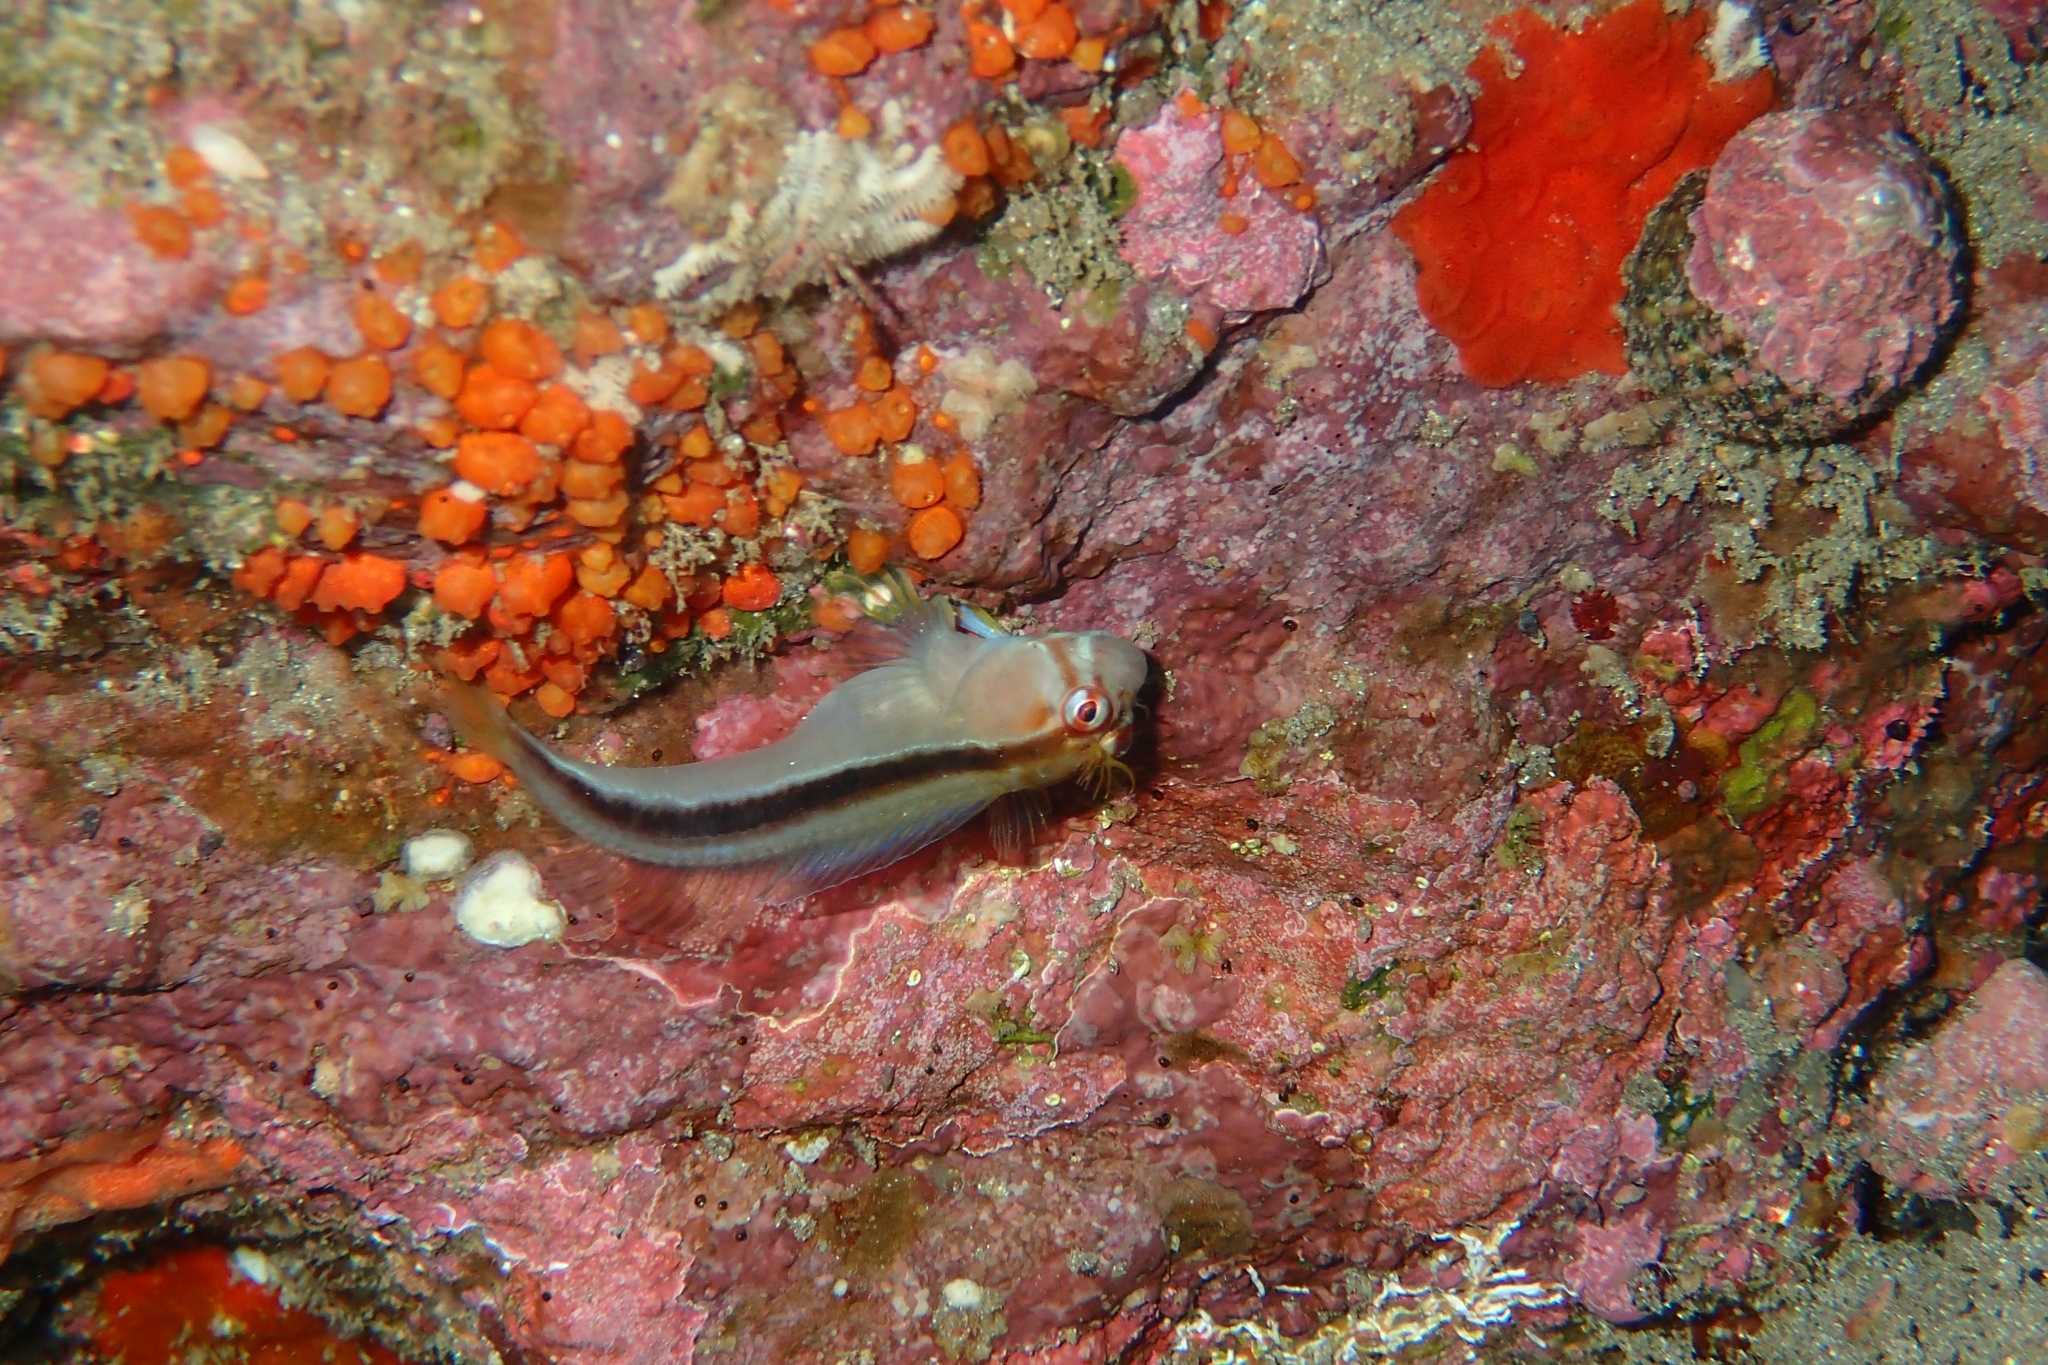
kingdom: Animalia
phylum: Chordata
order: Perciformes
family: Blenniidae
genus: Parablennius
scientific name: Parablennius laticlavius
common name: Crested blenny
